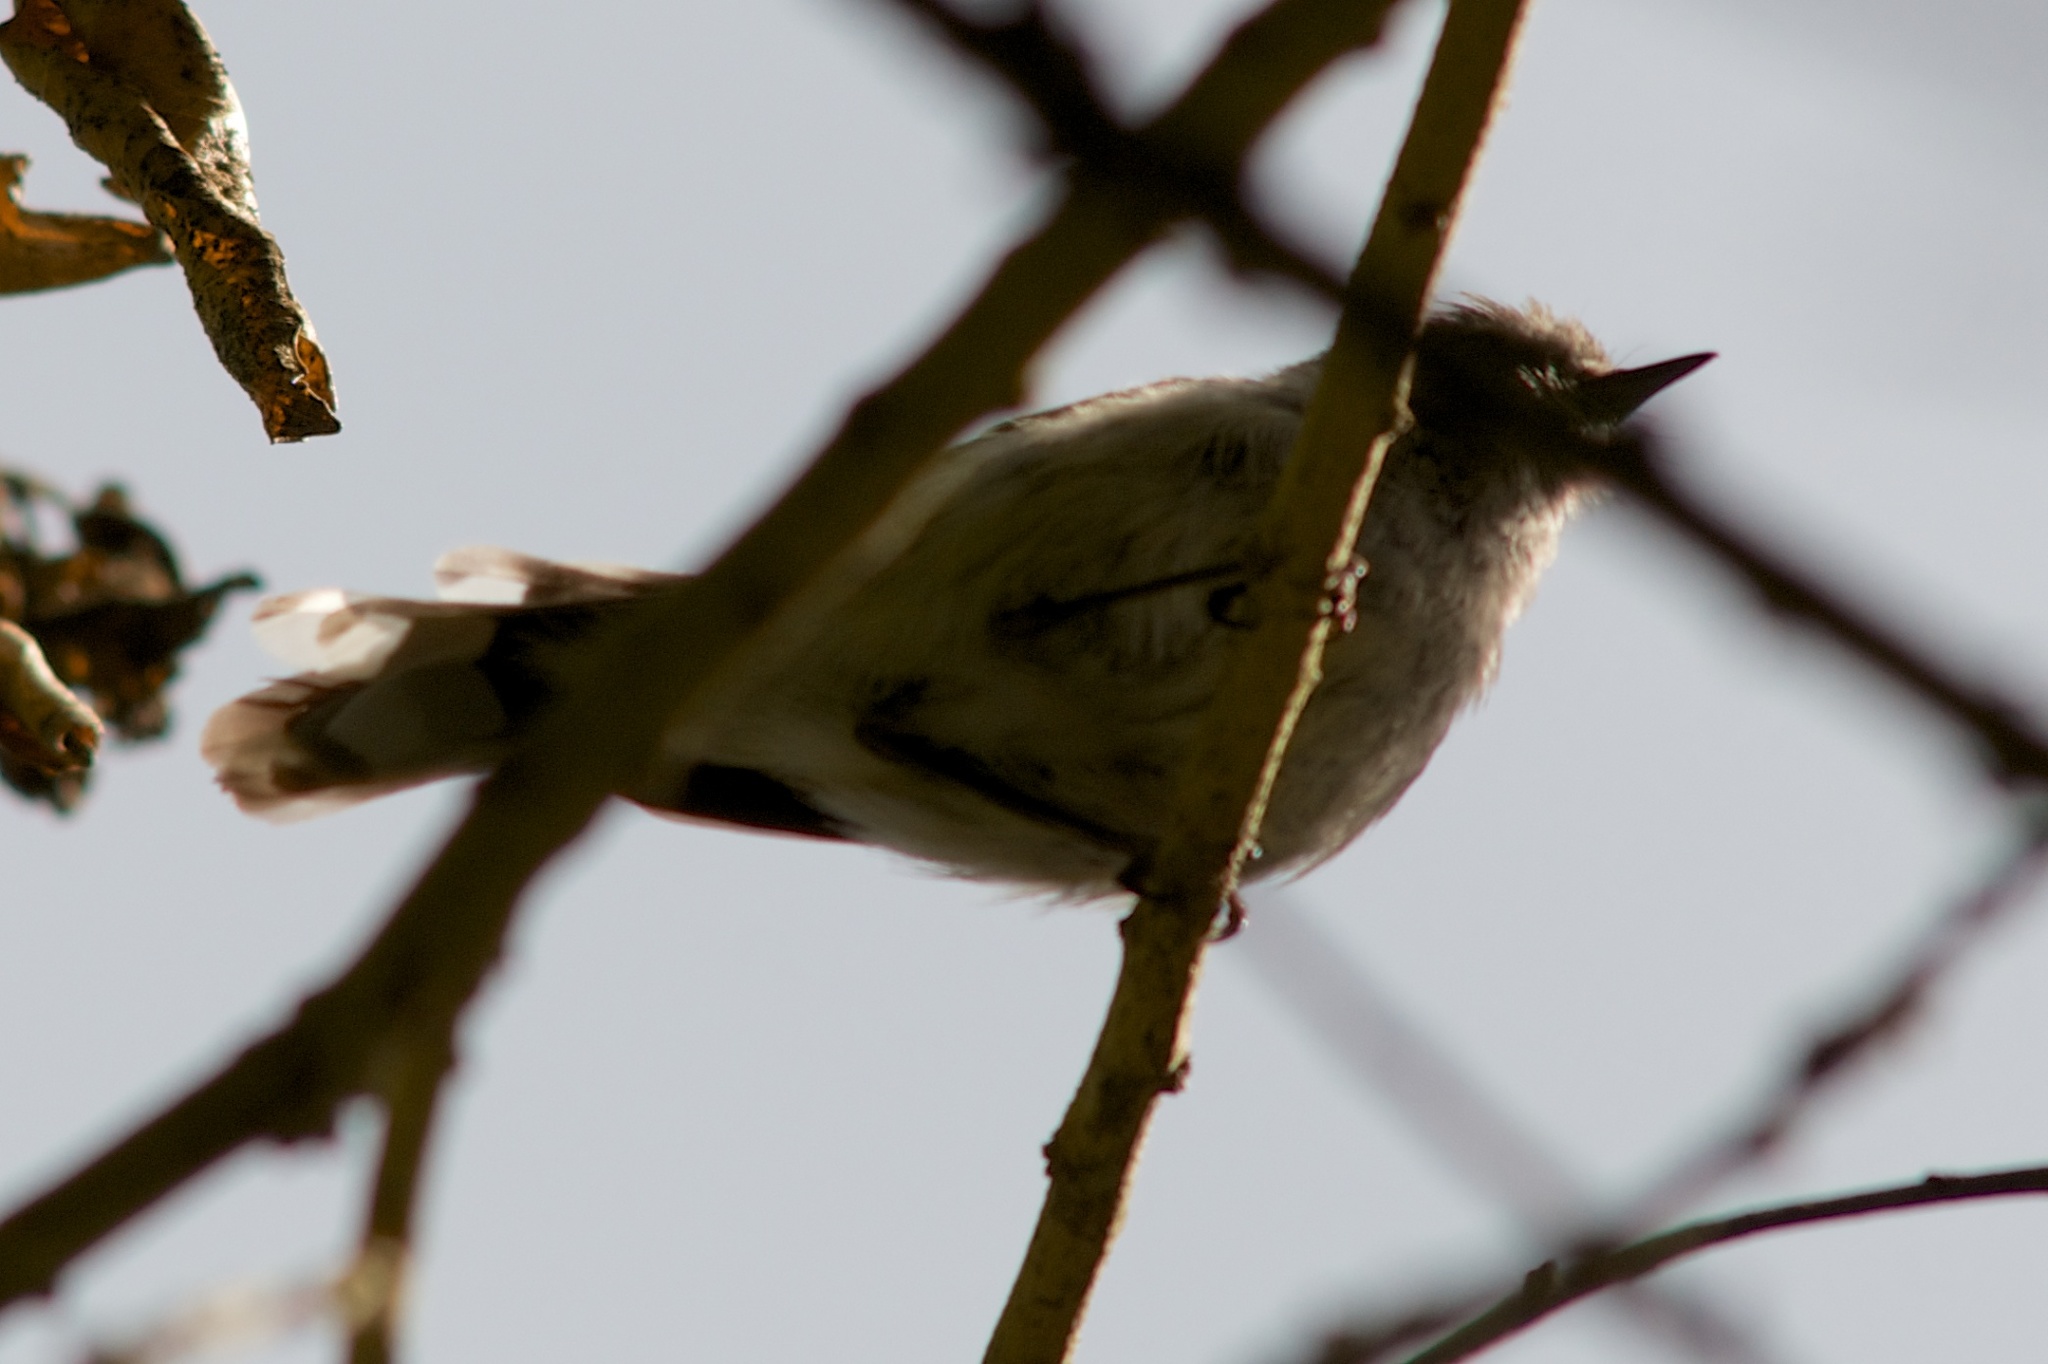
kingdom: Animalia
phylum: Chordata
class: Aves
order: Passeriformes
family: Acanthizidae
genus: Gerygone
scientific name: Gerygone igata
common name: Grey gerygone
